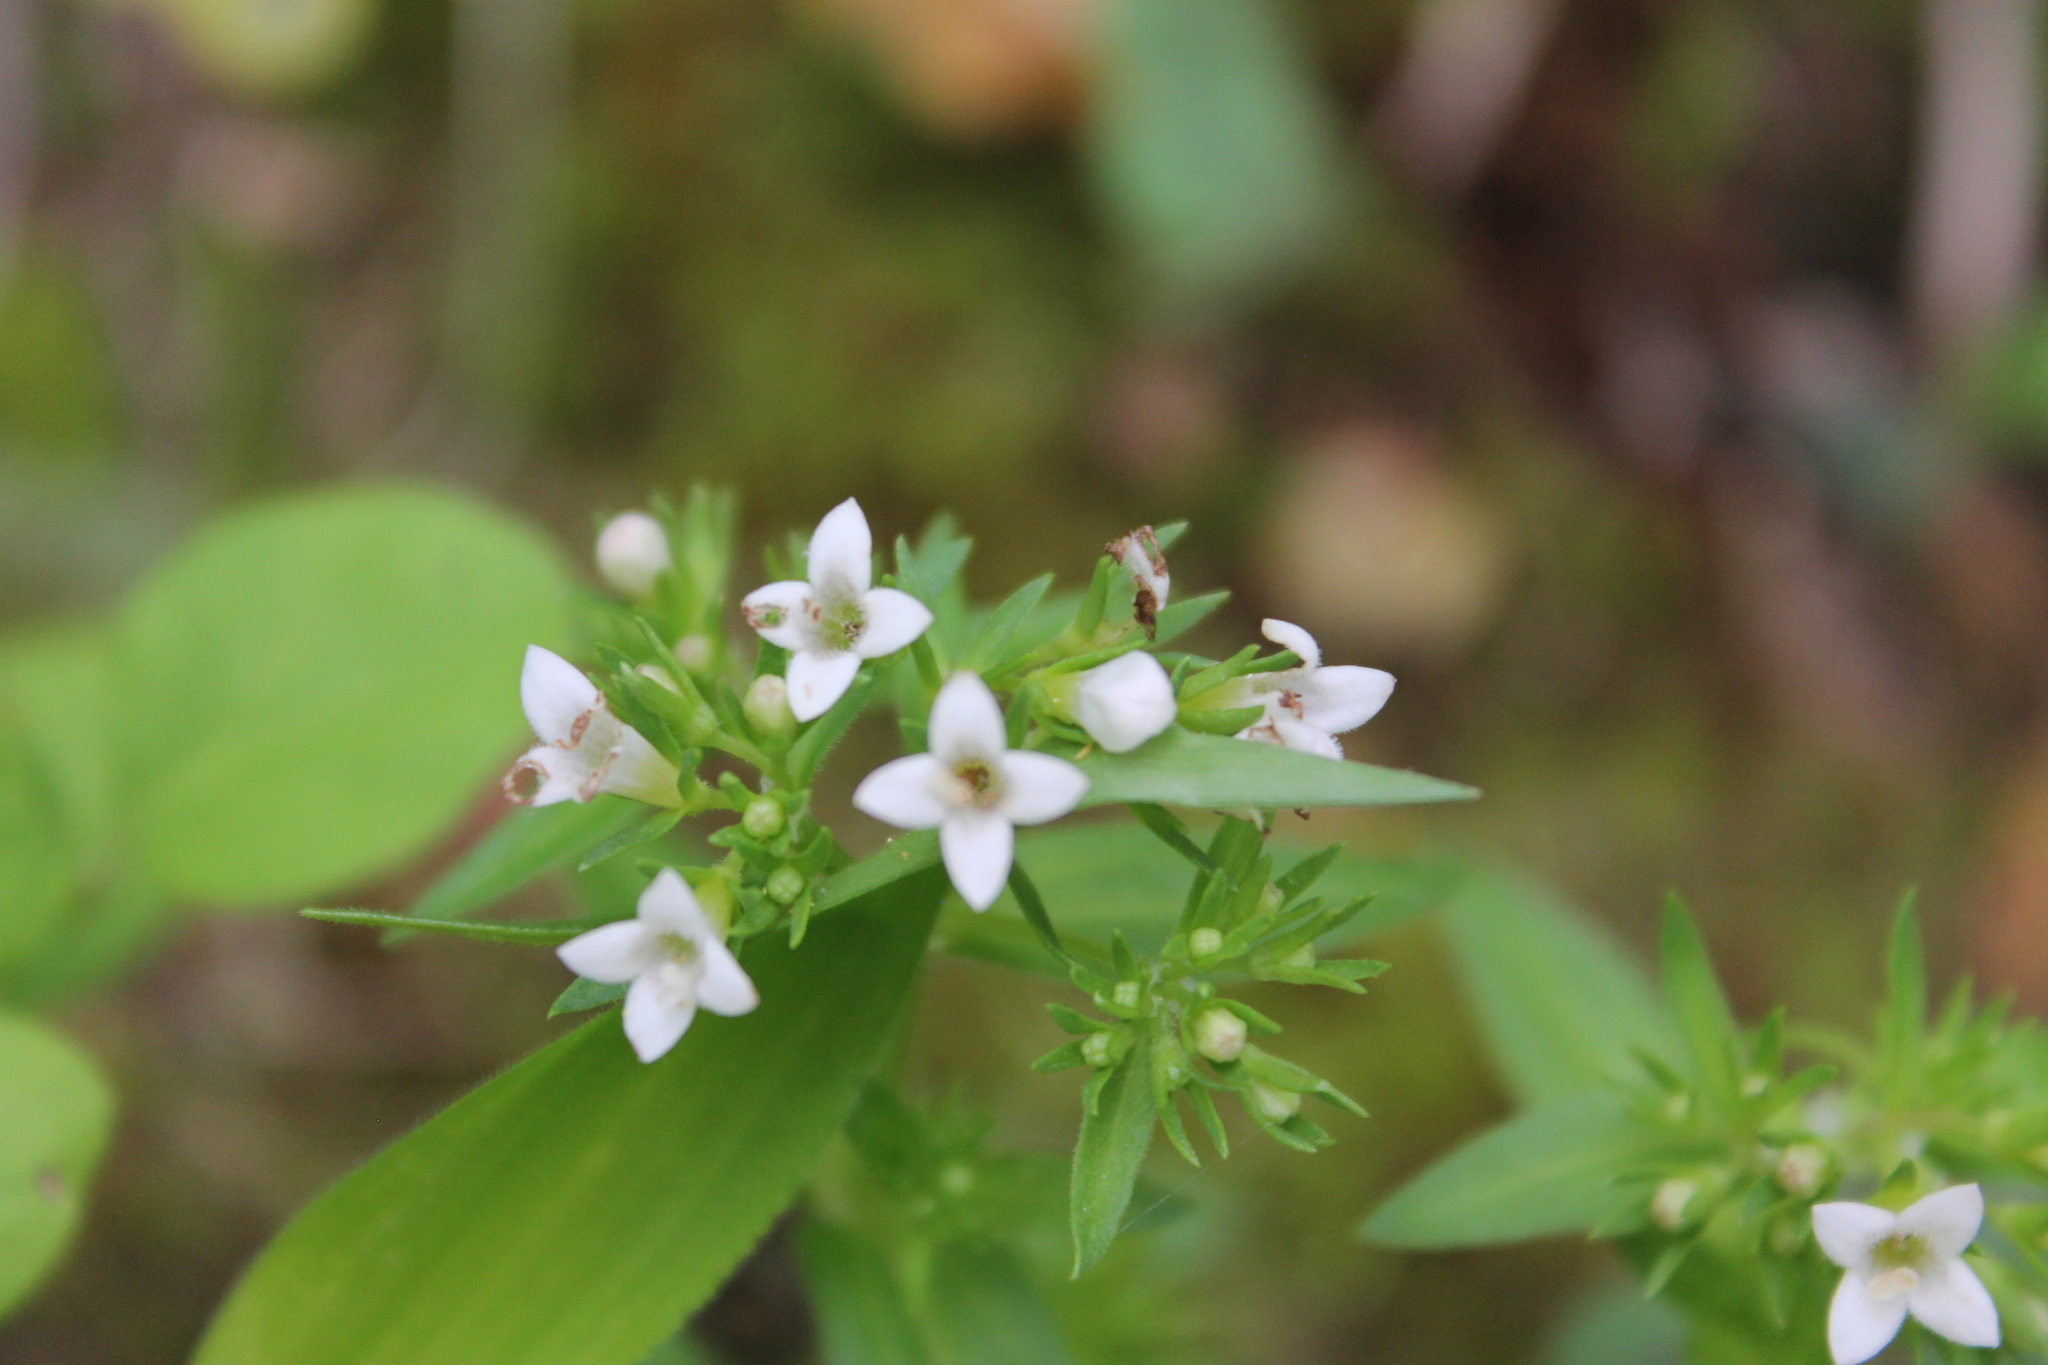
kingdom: Plantae
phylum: Tracheophyta
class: Magnoliopsida
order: Gentianales
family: Rubiaceae
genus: Houstonia
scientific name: Houstonia purpurea
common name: Summer bluet
